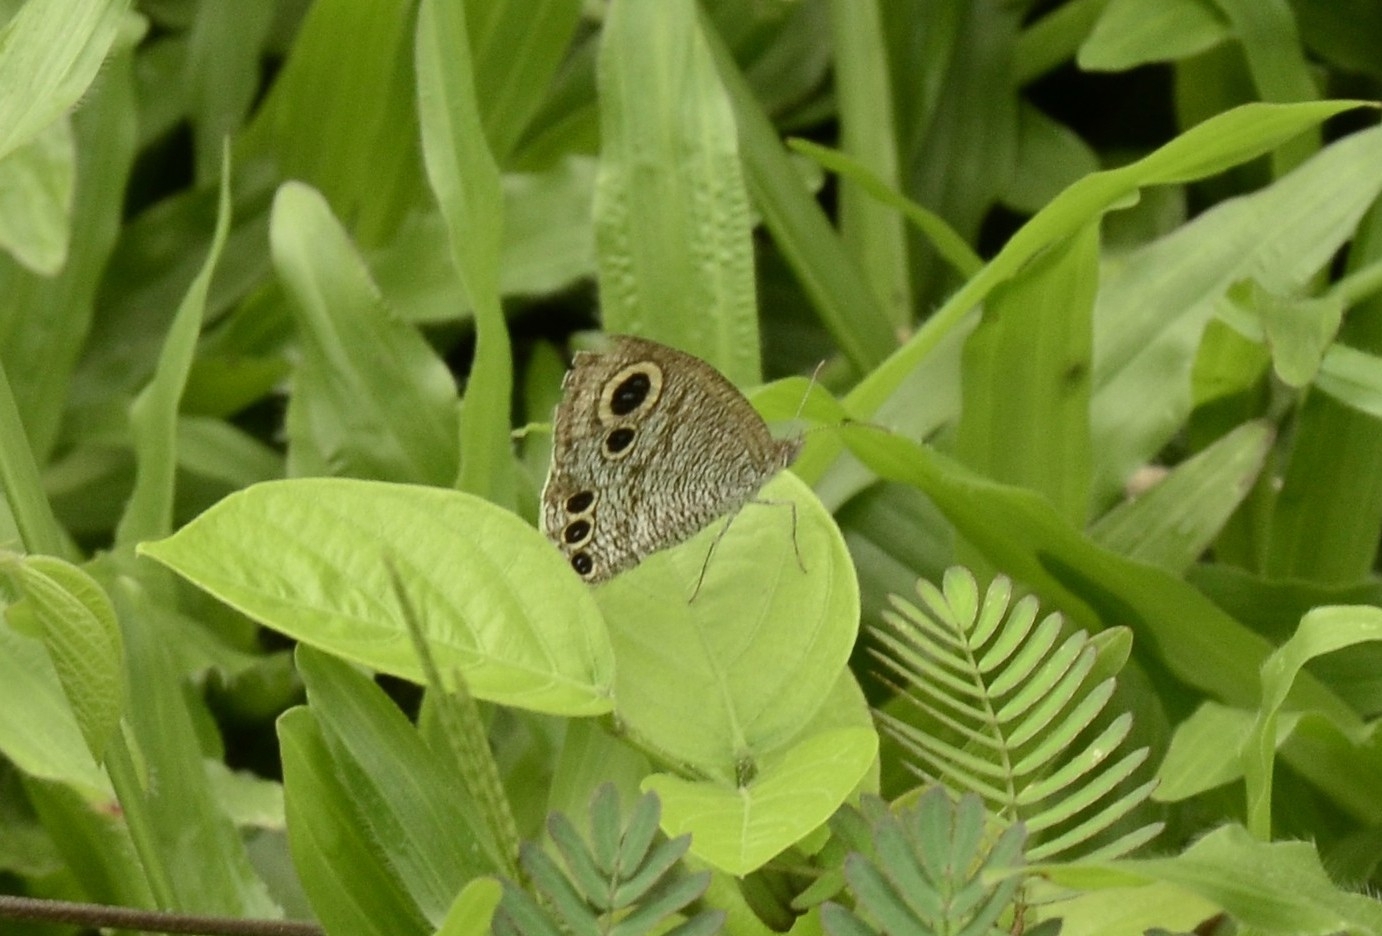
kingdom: Animalia
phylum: Arthropoda
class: Insecta
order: Lepidoptera
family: Nymphalidae
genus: Ypthima
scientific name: Ypthima huebneri
